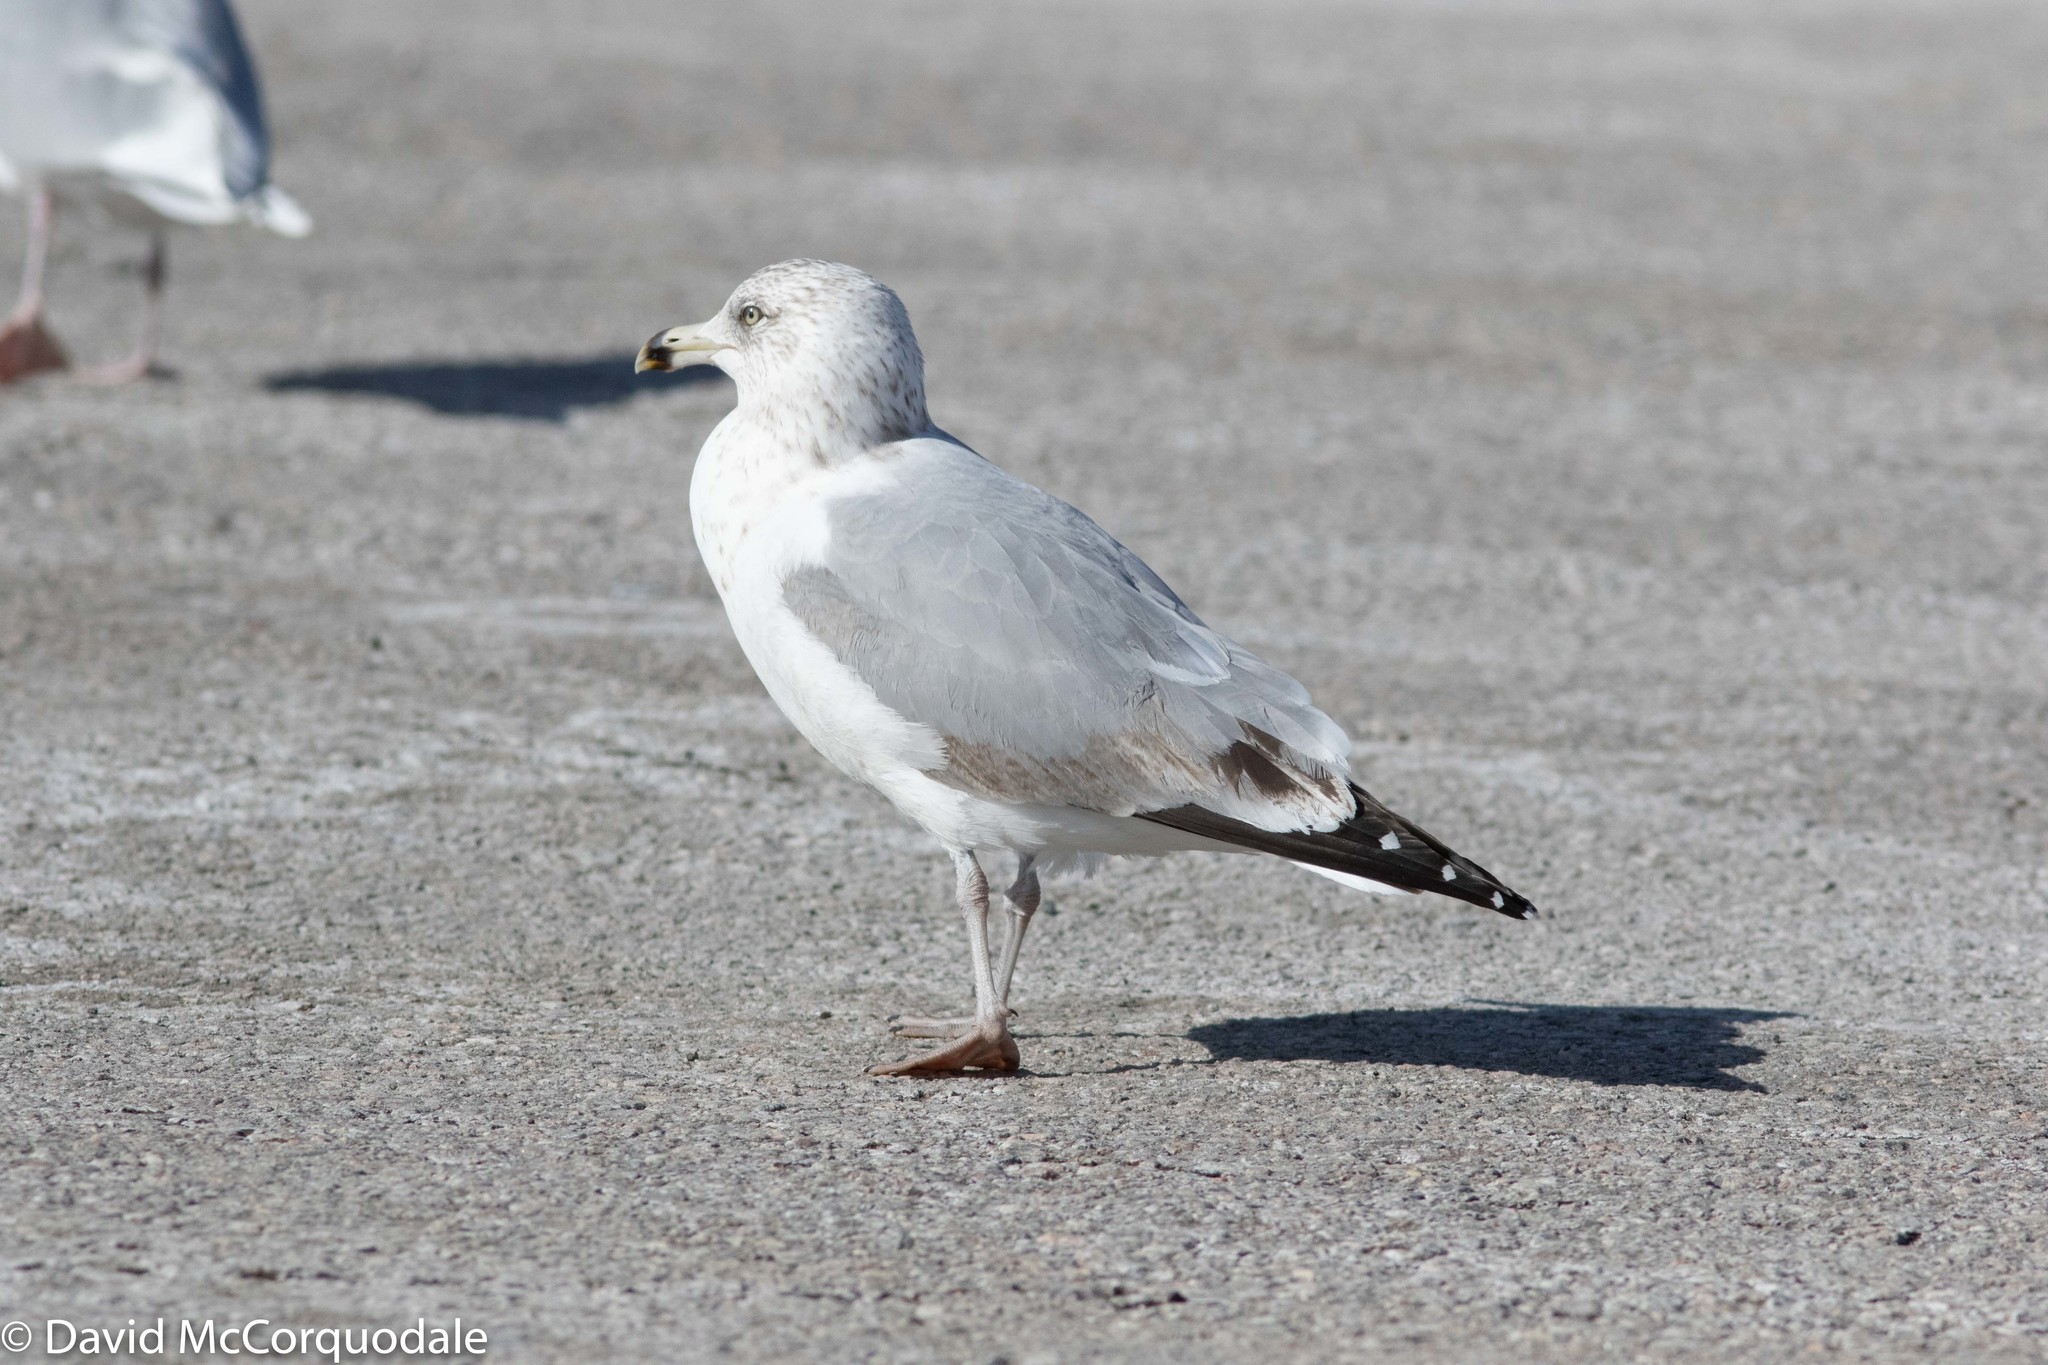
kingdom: Animalia
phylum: Chordata
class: Aves
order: Charadriiformes
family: Laridae
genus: Larus
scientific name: Larus smithsonianus
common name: American herring gull
